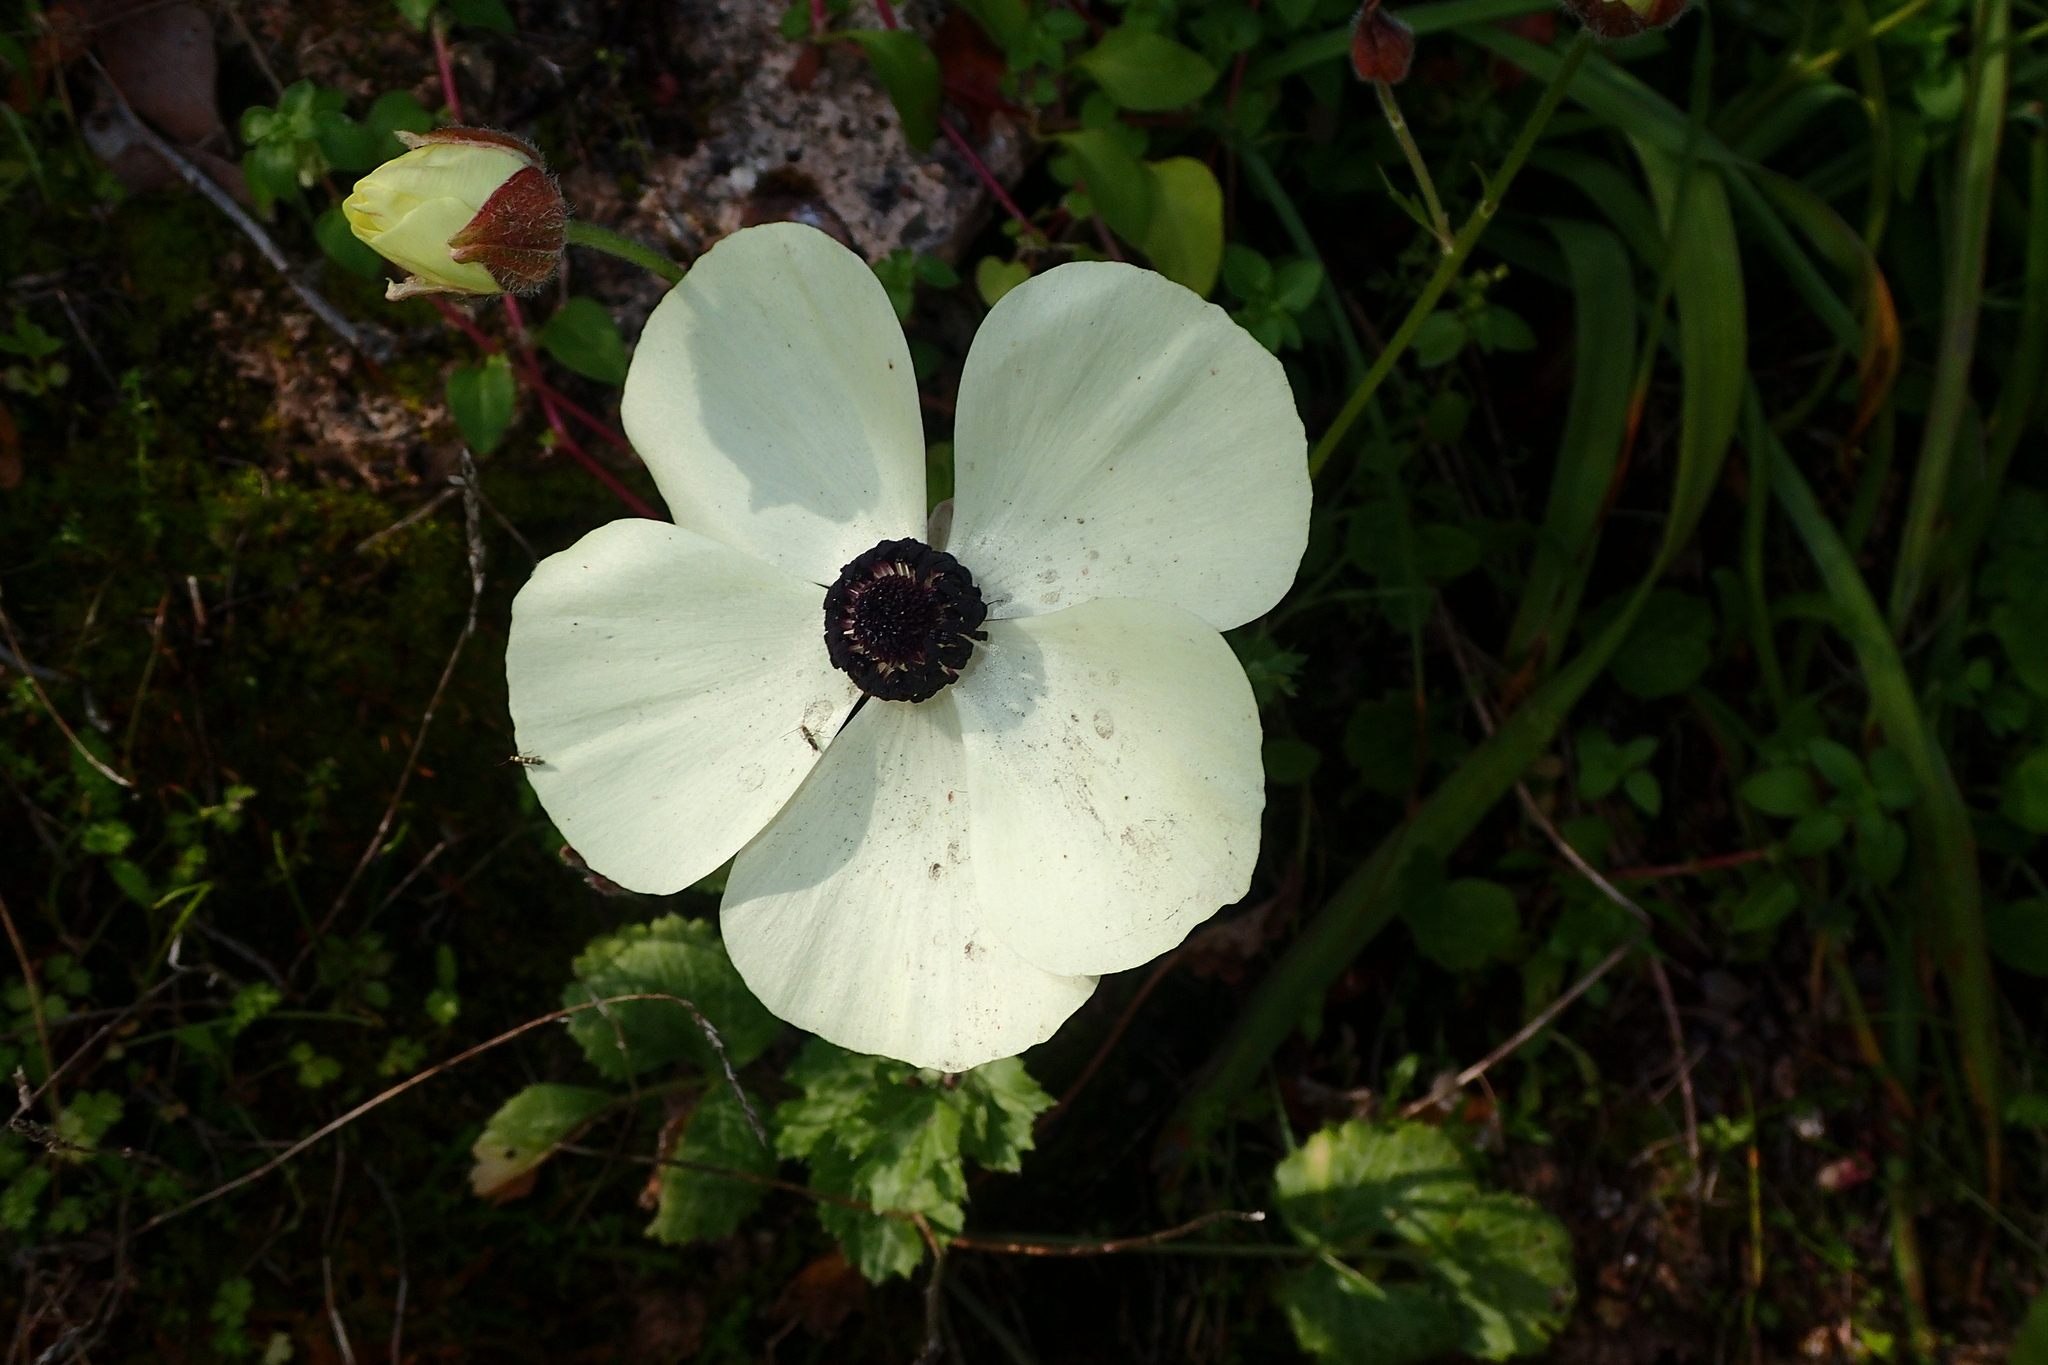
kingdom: Plantae
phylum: Tracheophyta
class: Magnoliopsida
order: Ranunculales
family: Ranunculaceae
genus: Ranunculus
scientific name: Ranunculus asiaticus
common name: Persian buttercup
